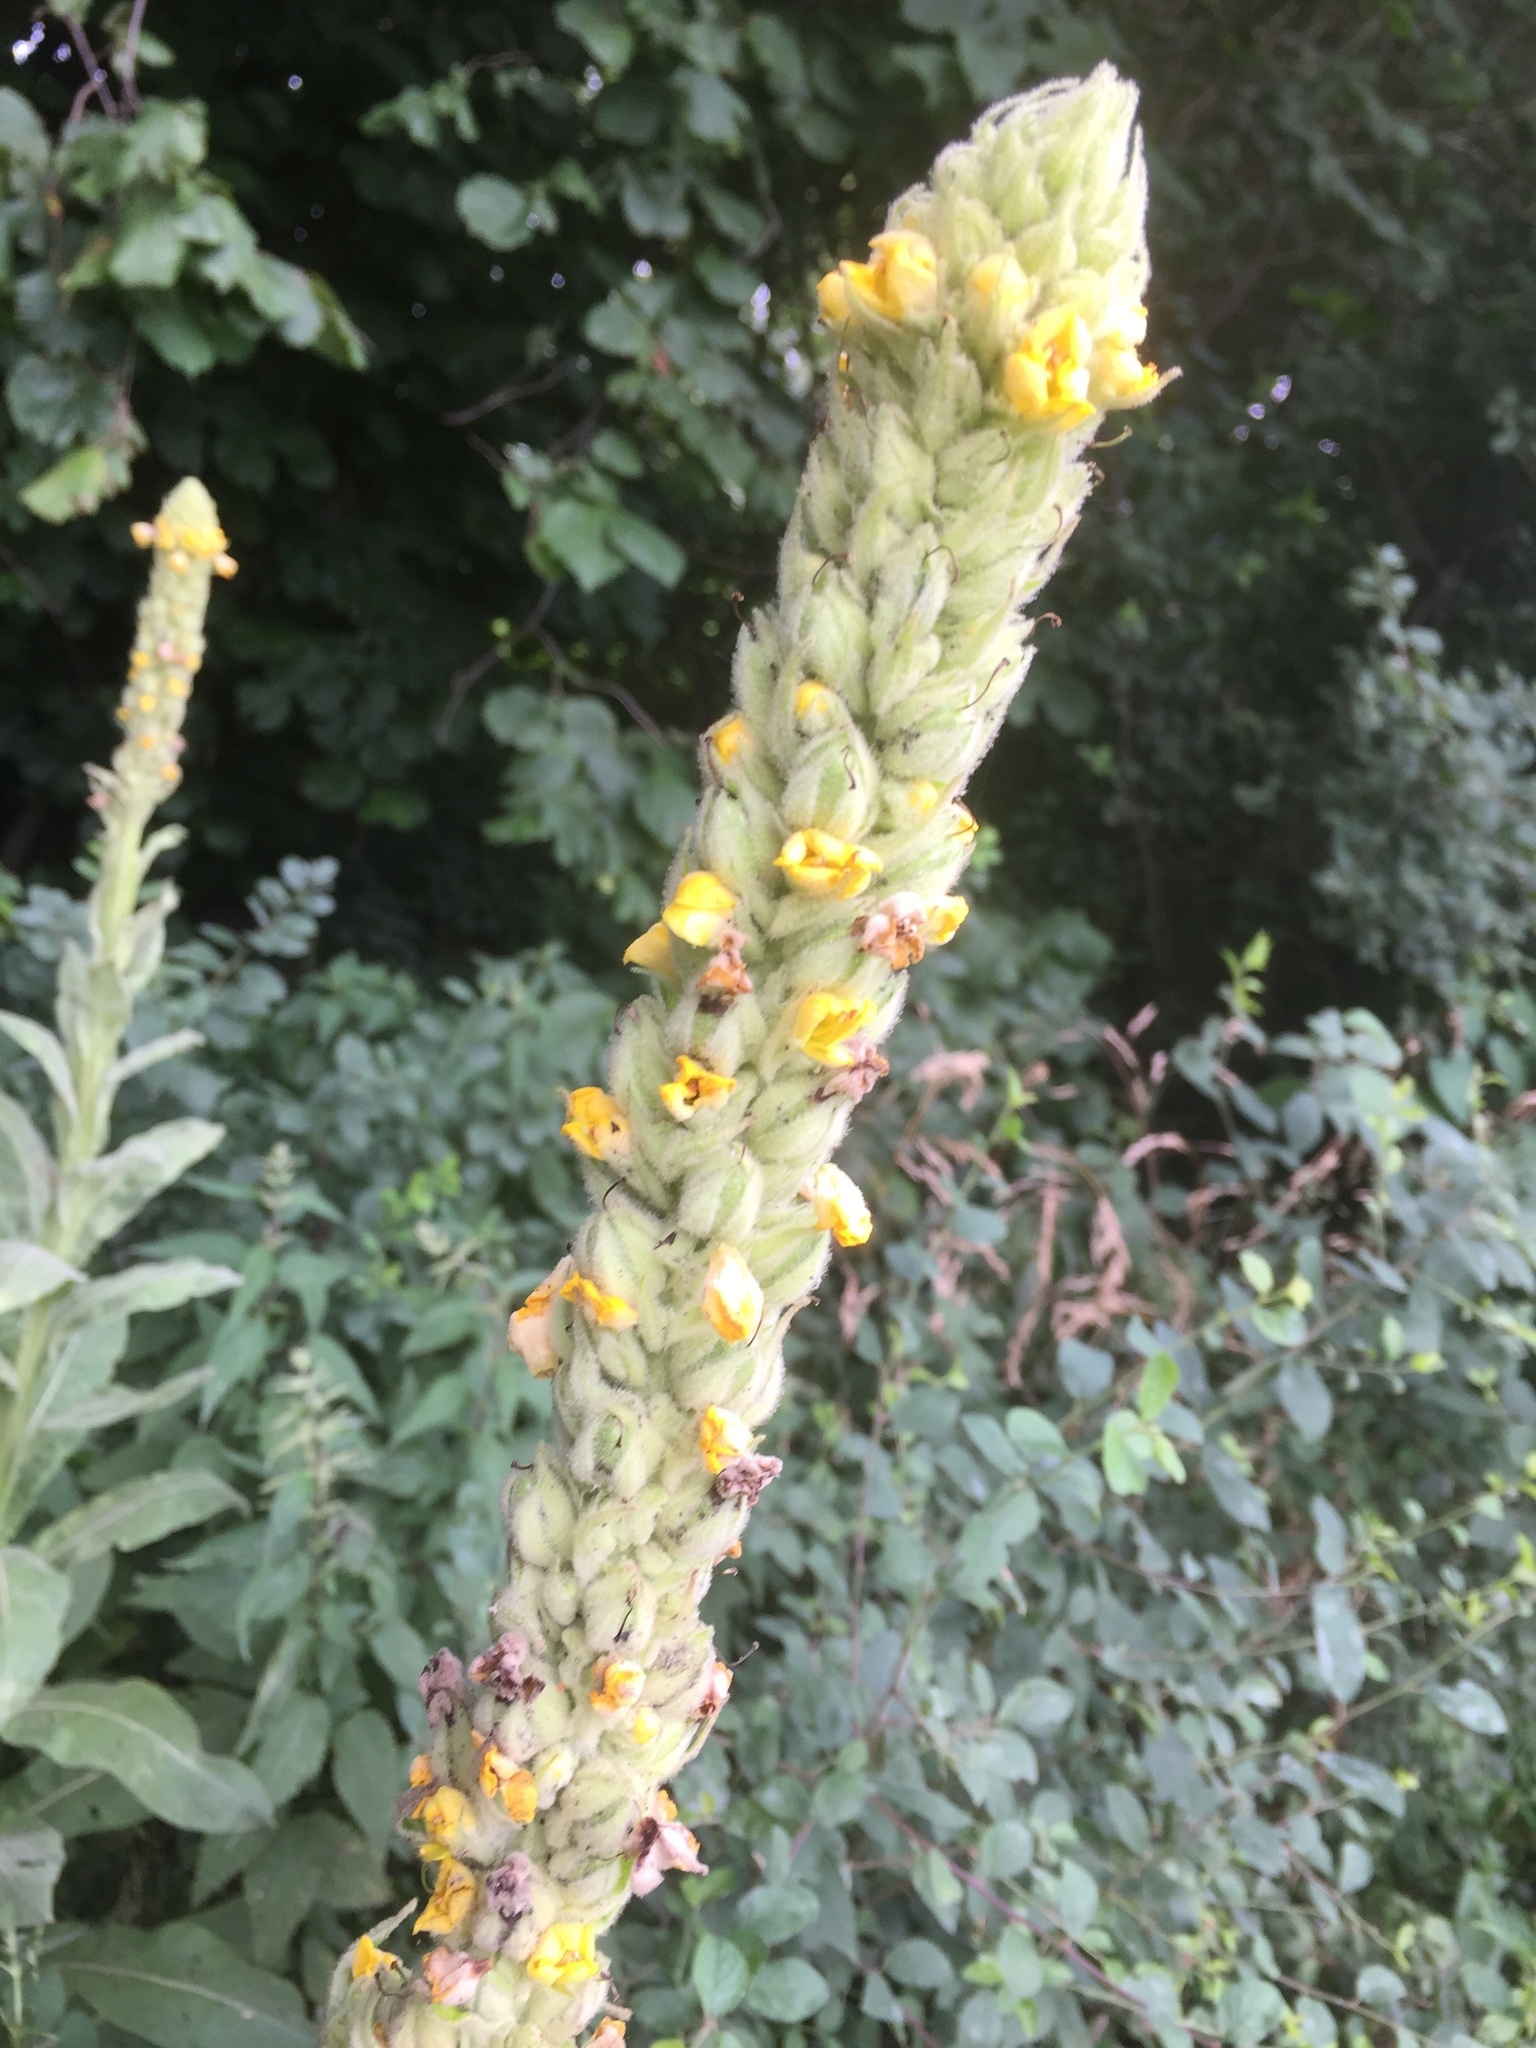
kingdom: Plantae
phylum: Tracheophyta
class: Magnoliopsida
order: Lamiales
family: Scrophulariaceae
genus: Verbascum
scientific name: Verbascum thapsus
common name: Common mullein
